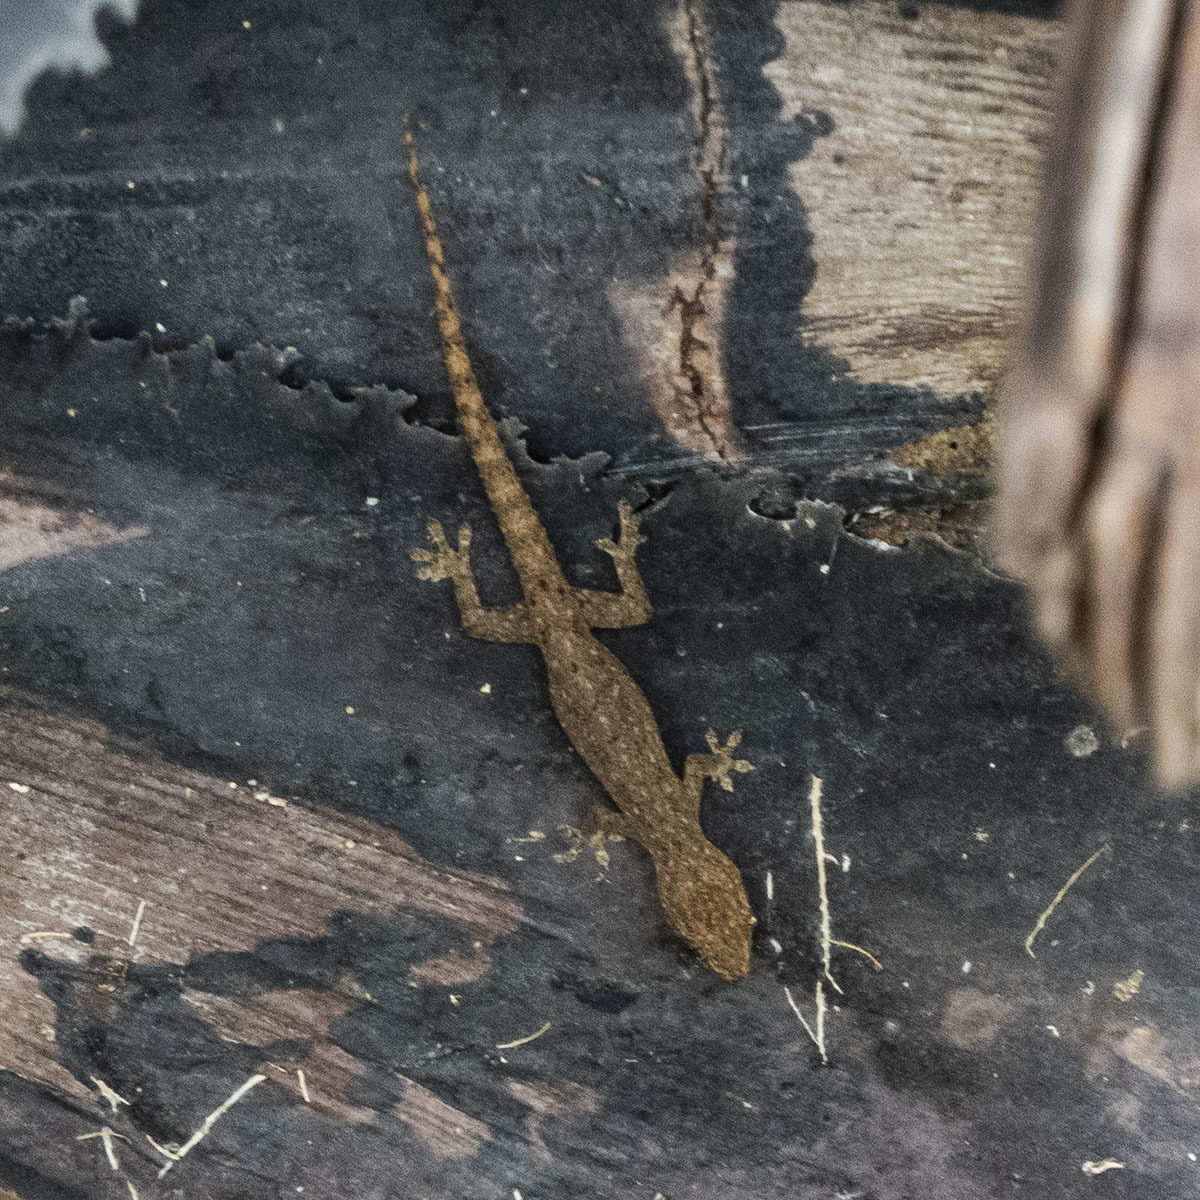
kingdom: Animalia
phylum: Chordata
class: Squamata
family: Gekkonidae
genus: Hemidactylus
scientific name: Hemidactylus frenatus
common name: Common house gecko
